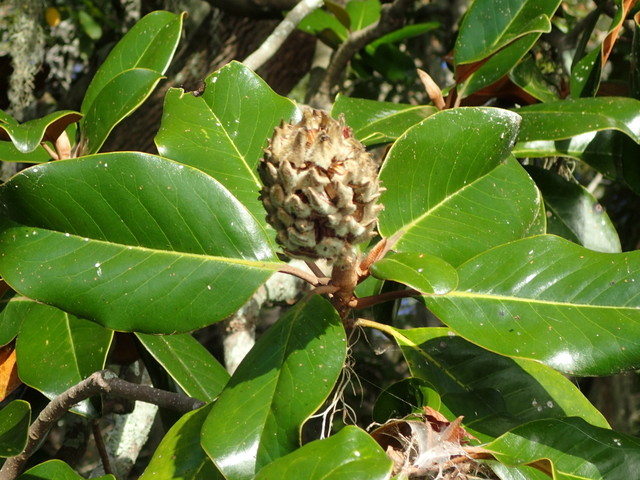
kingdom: Plantae
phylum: Tracheophyta
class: Magnoliopsida
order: Magnoliales
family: Magnoliaceae
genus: Magnolia
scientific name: Magnolia grandiflora
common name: Southern magnolia
